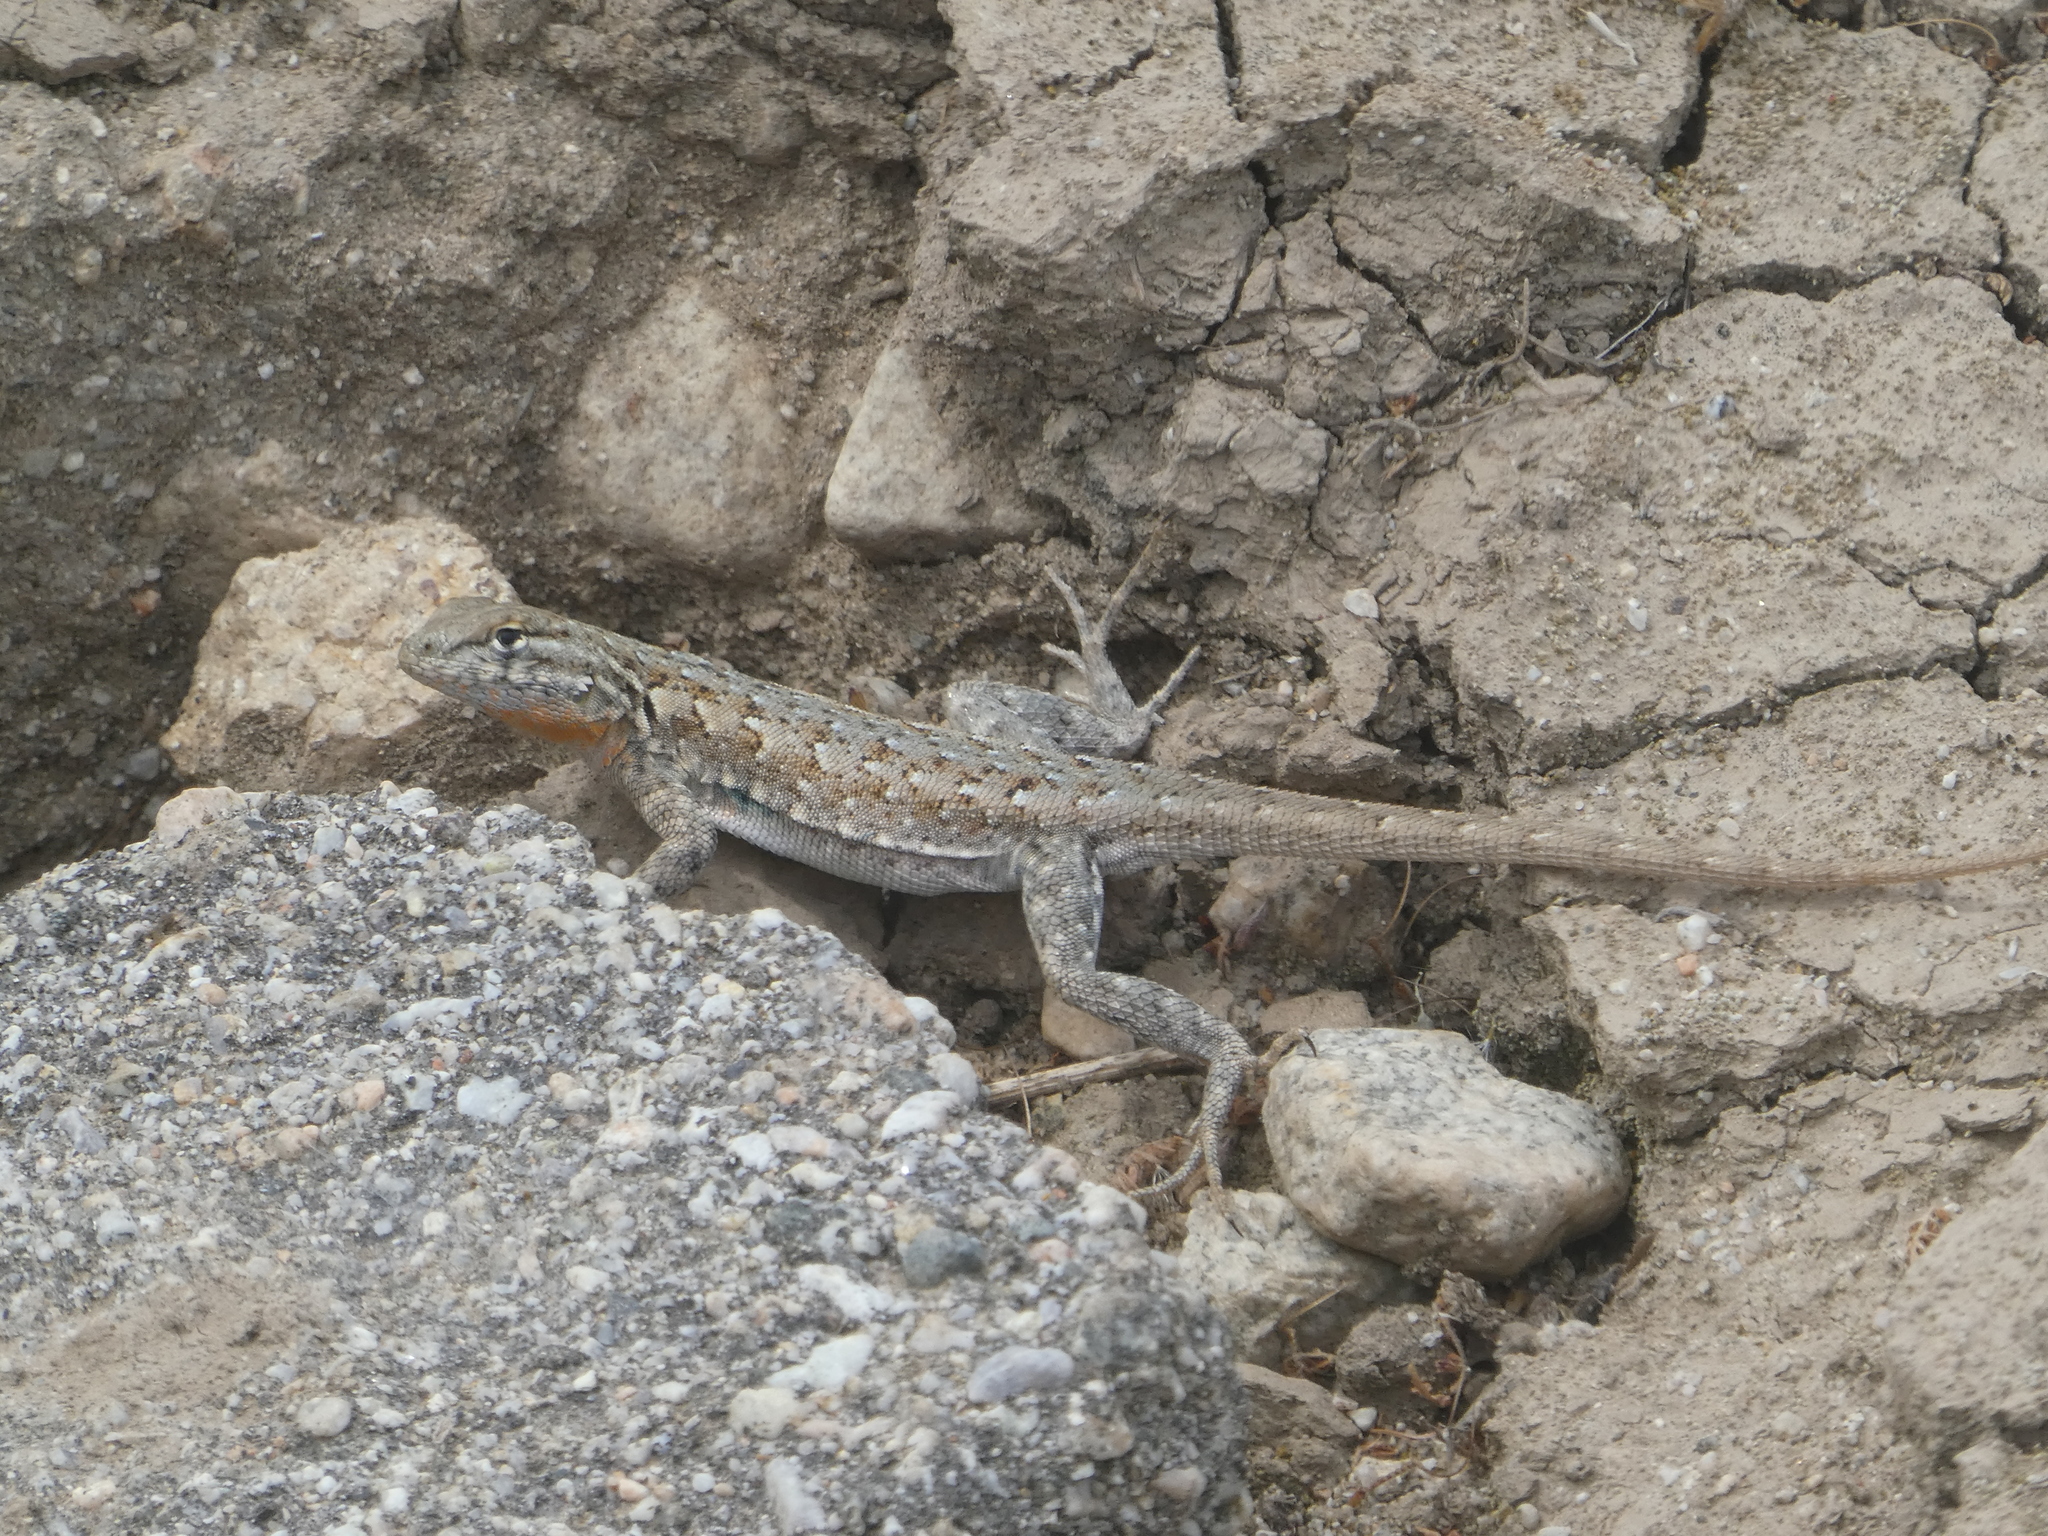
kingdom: Animalia
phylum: Chordata
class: Squamata
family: Phrynosomatidae
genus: Uta
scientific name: Uta stansburiana
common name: Side-blotched lizard
